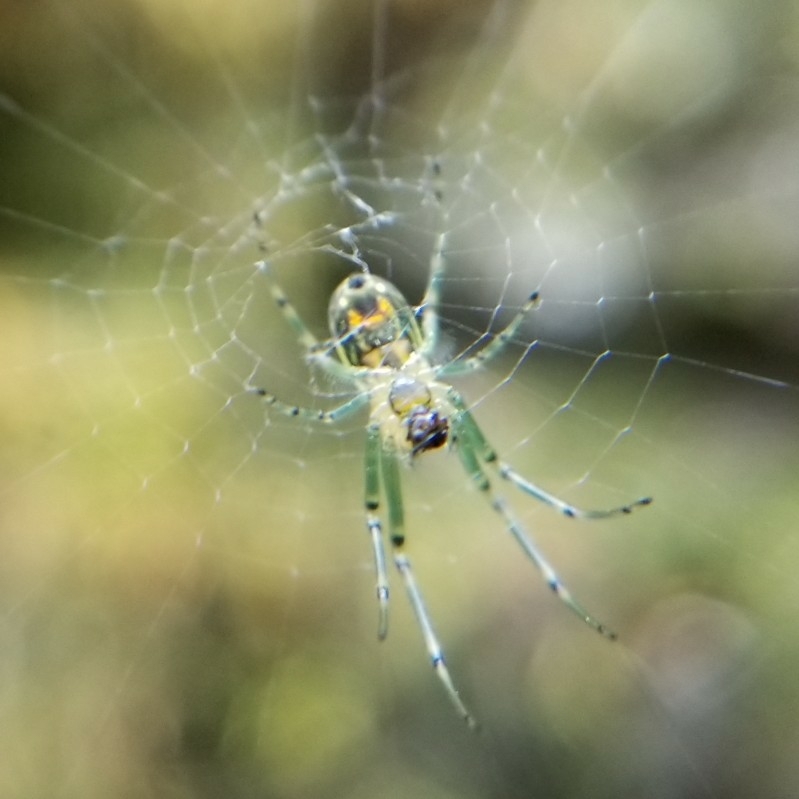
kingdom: Animalia
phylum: Arthropoda
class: Arachnida
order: Araneae
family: Tetragnathidae
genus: Leucauge
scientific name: Leucauge venusta
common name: Longjawed orb weavers
